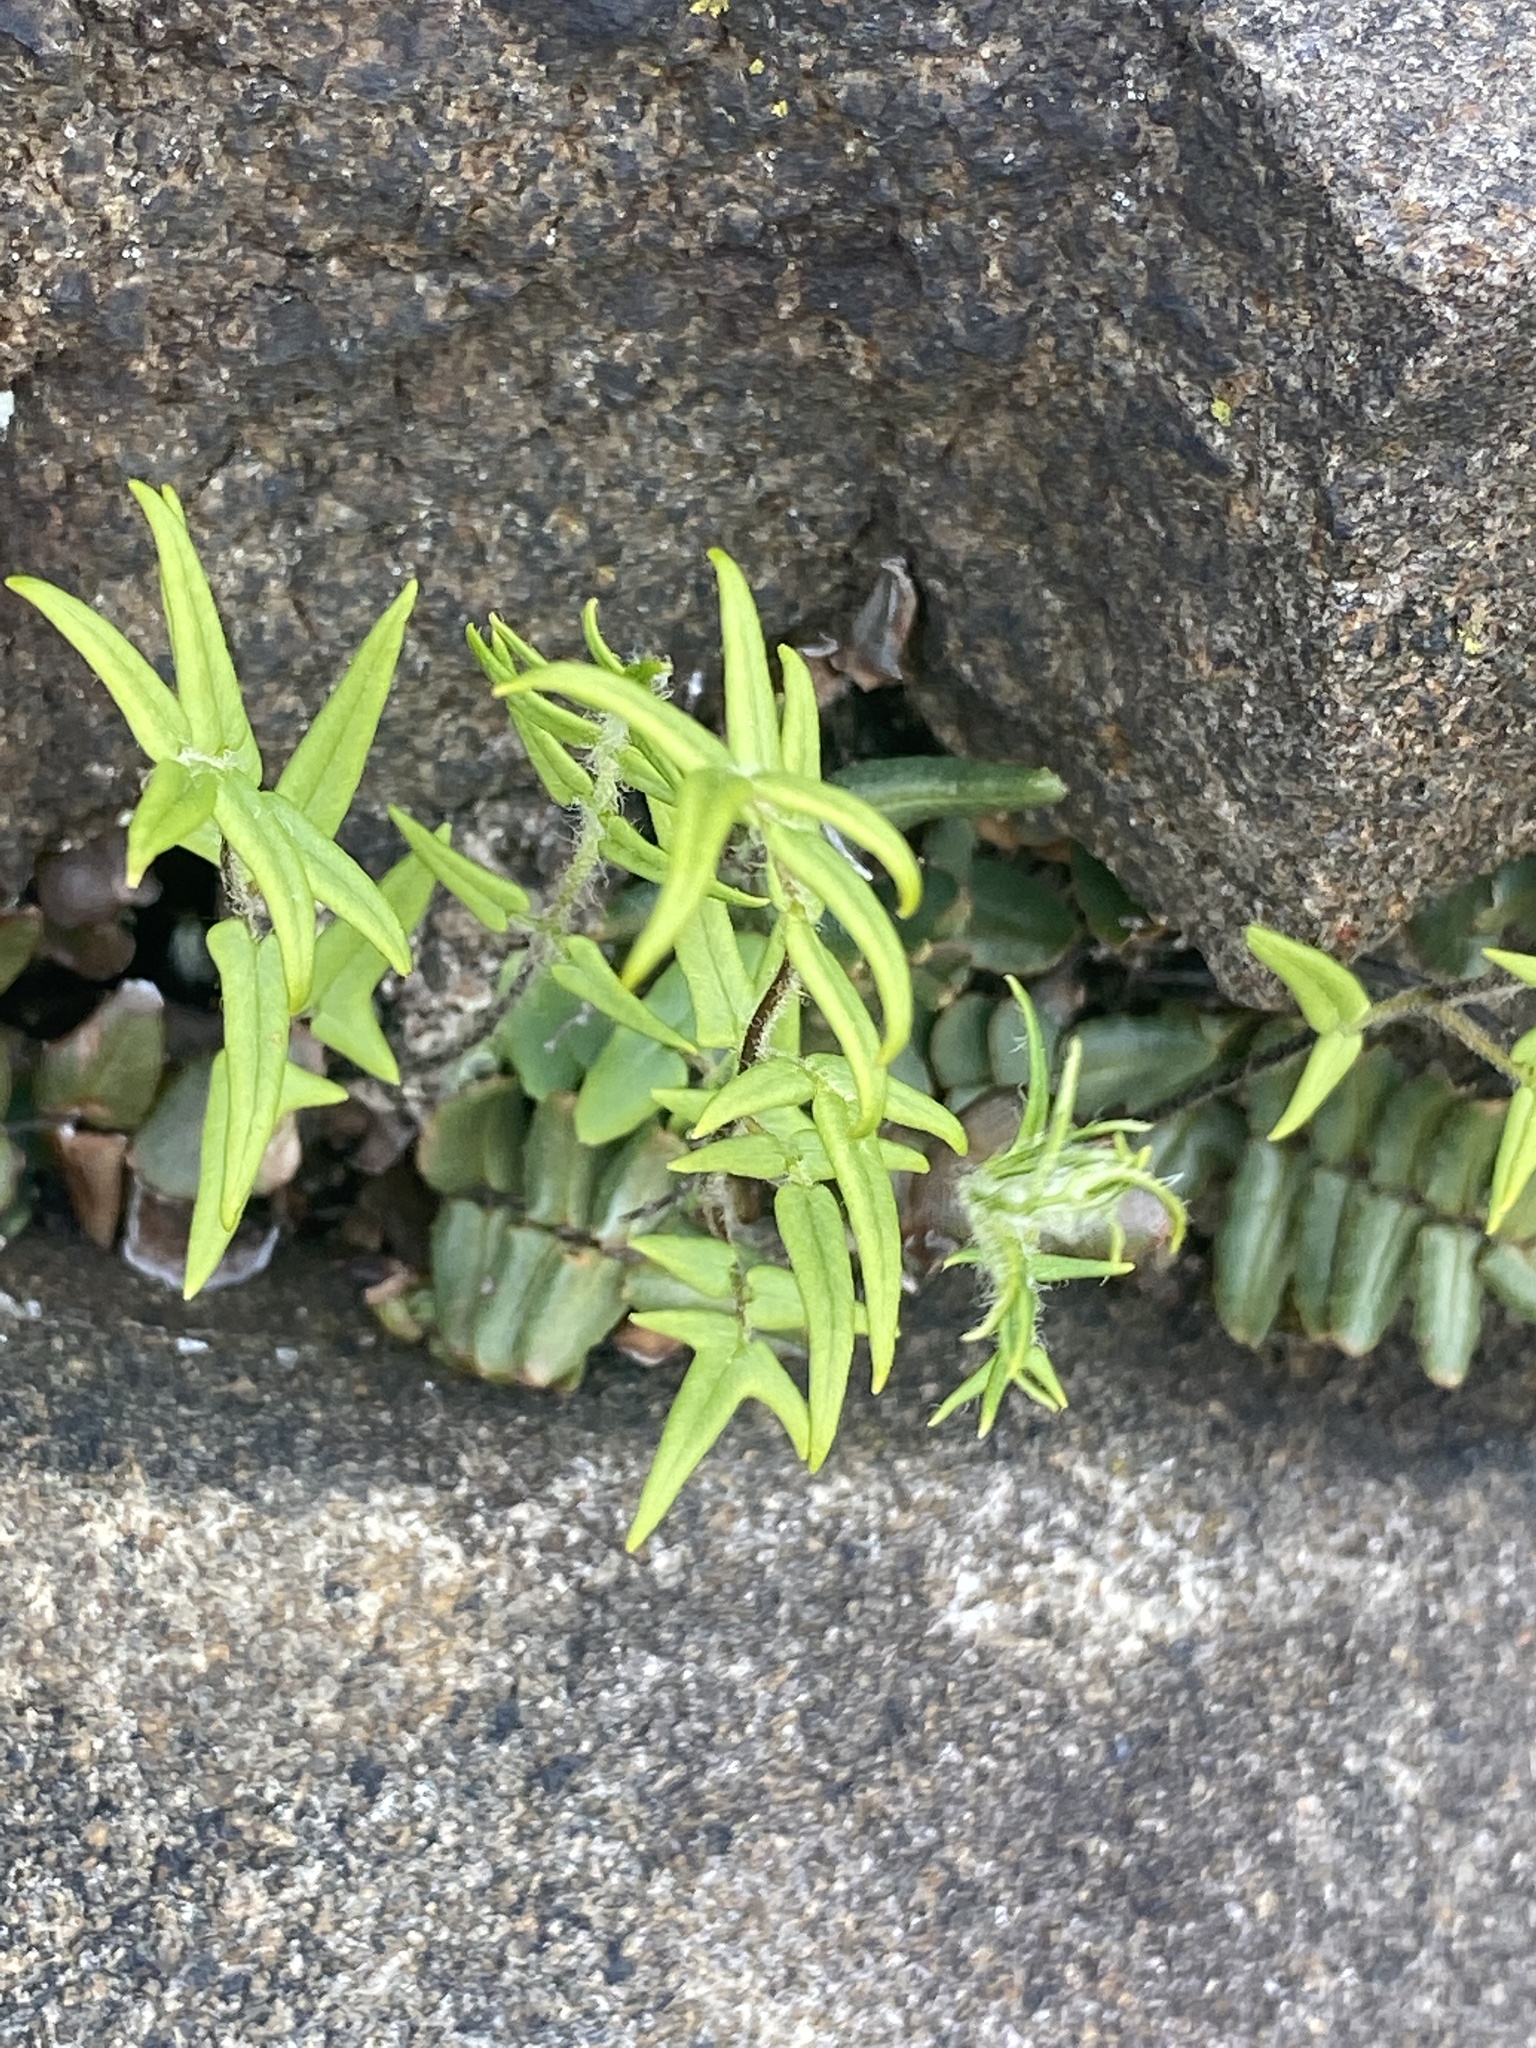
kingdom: Plantae
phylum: Tracheophyta
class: Polypodiopsida
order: Polypodiales
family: Pteridaceae
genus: Pellaea
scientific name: Pellaea atropurpurea
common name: Hairy cliffbrake
